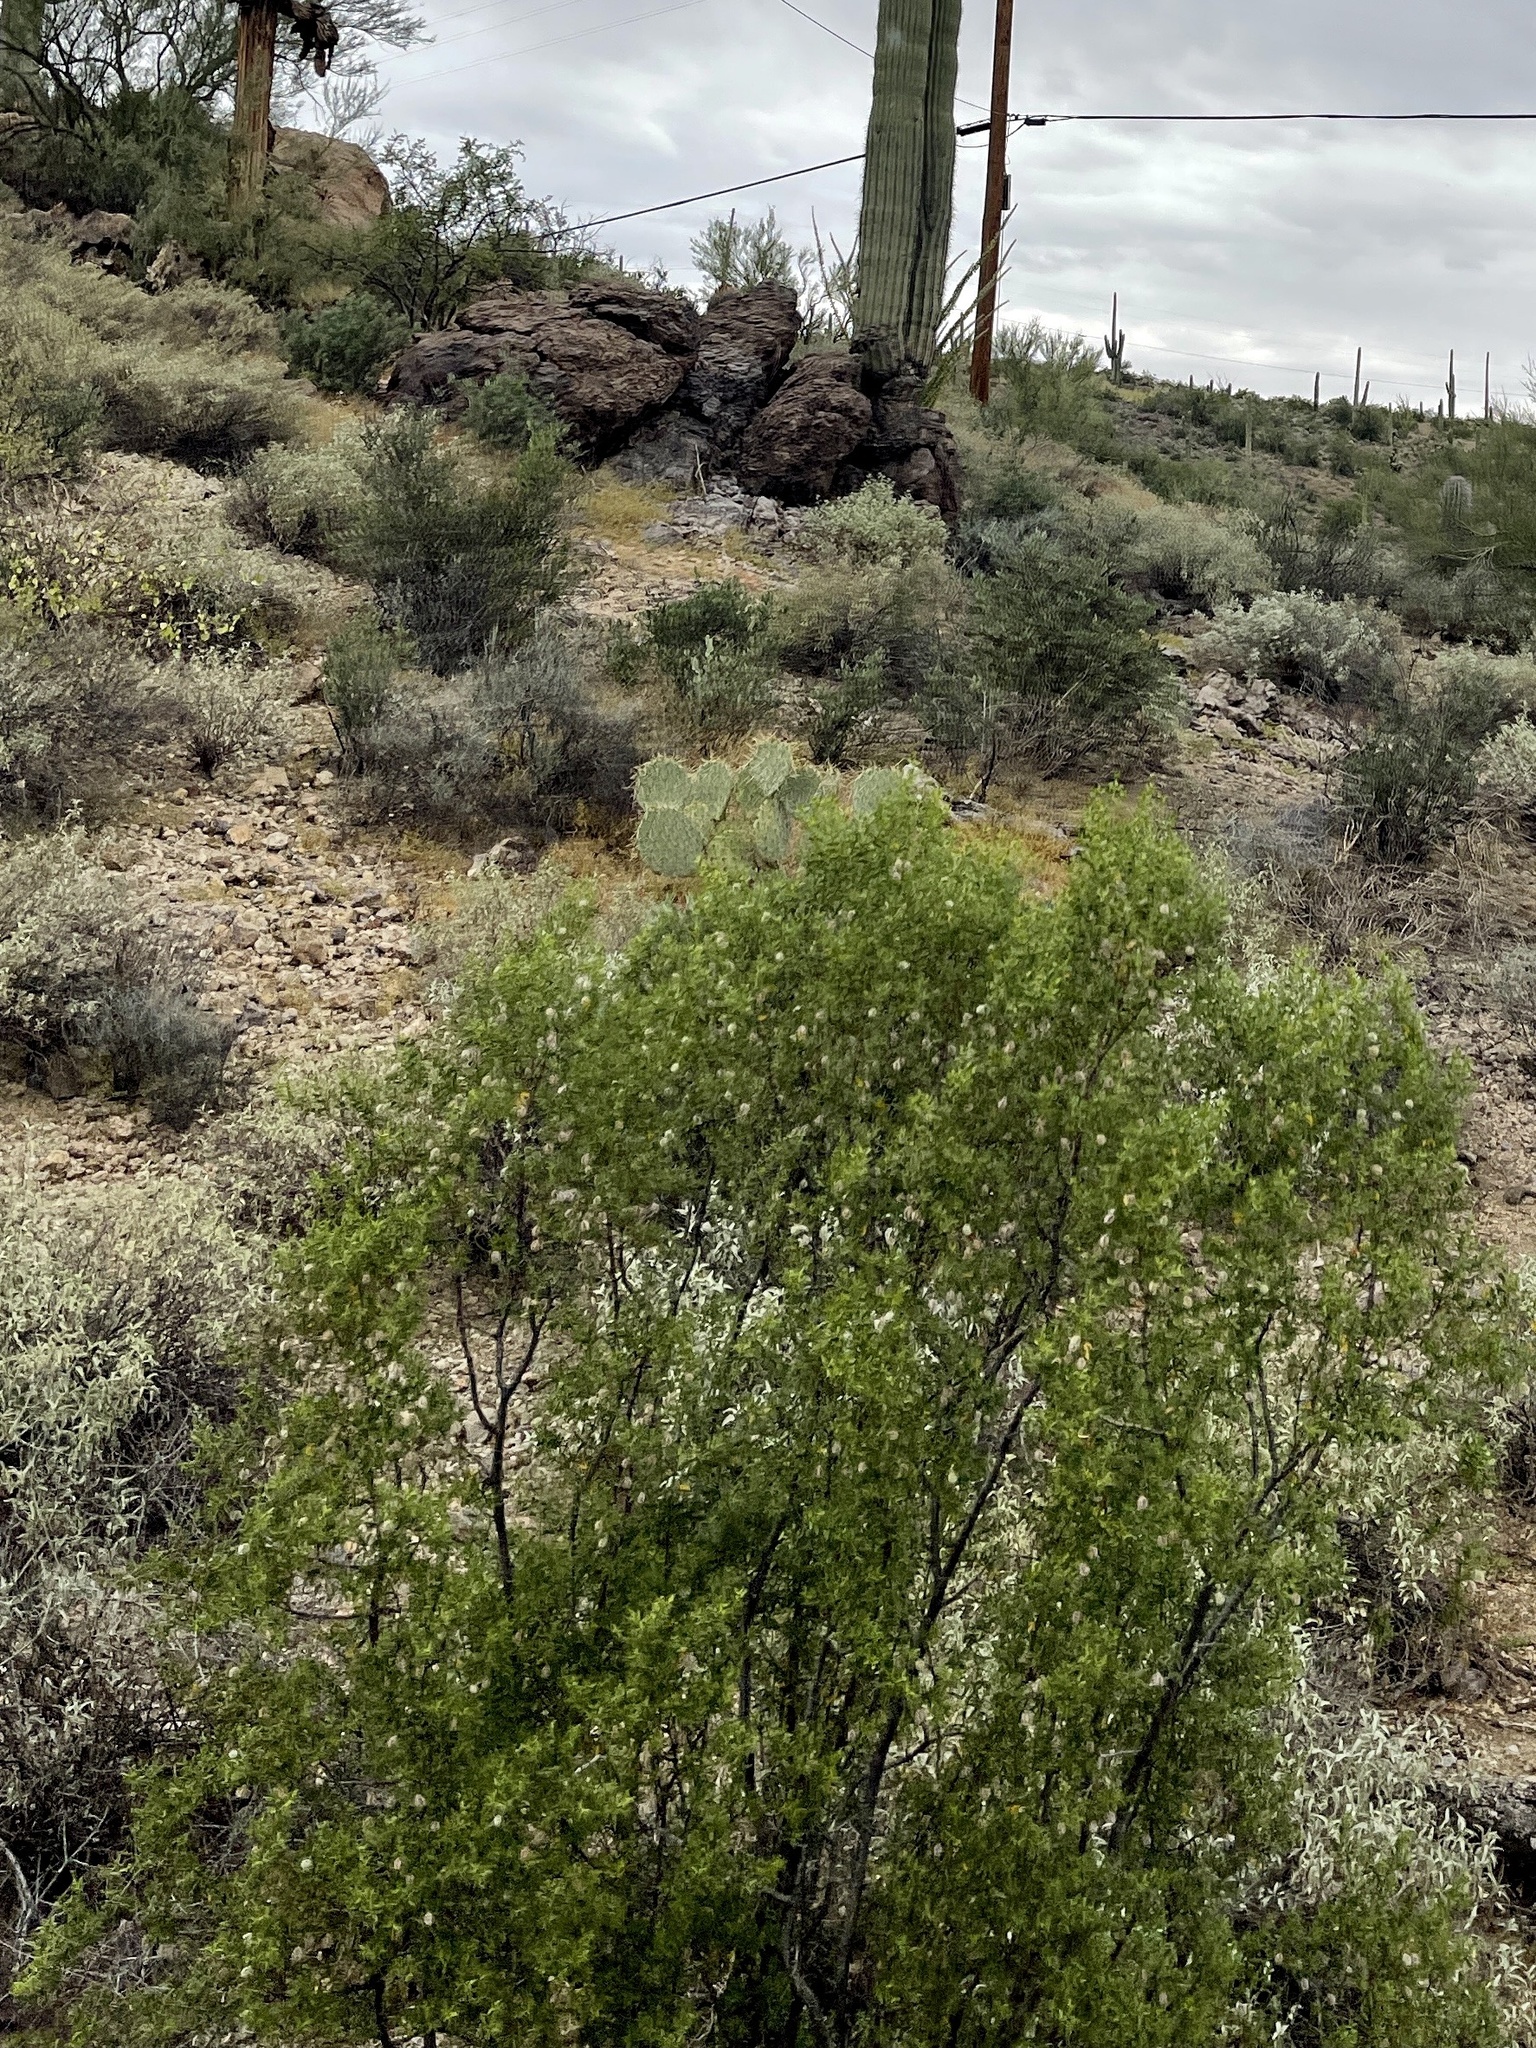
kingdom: Plantae
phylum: Tracheophyta
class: Magnoliopsida
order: Zygophyllales
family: Zygophyllaceae
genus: Larrea
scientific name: Larrea tridentata
